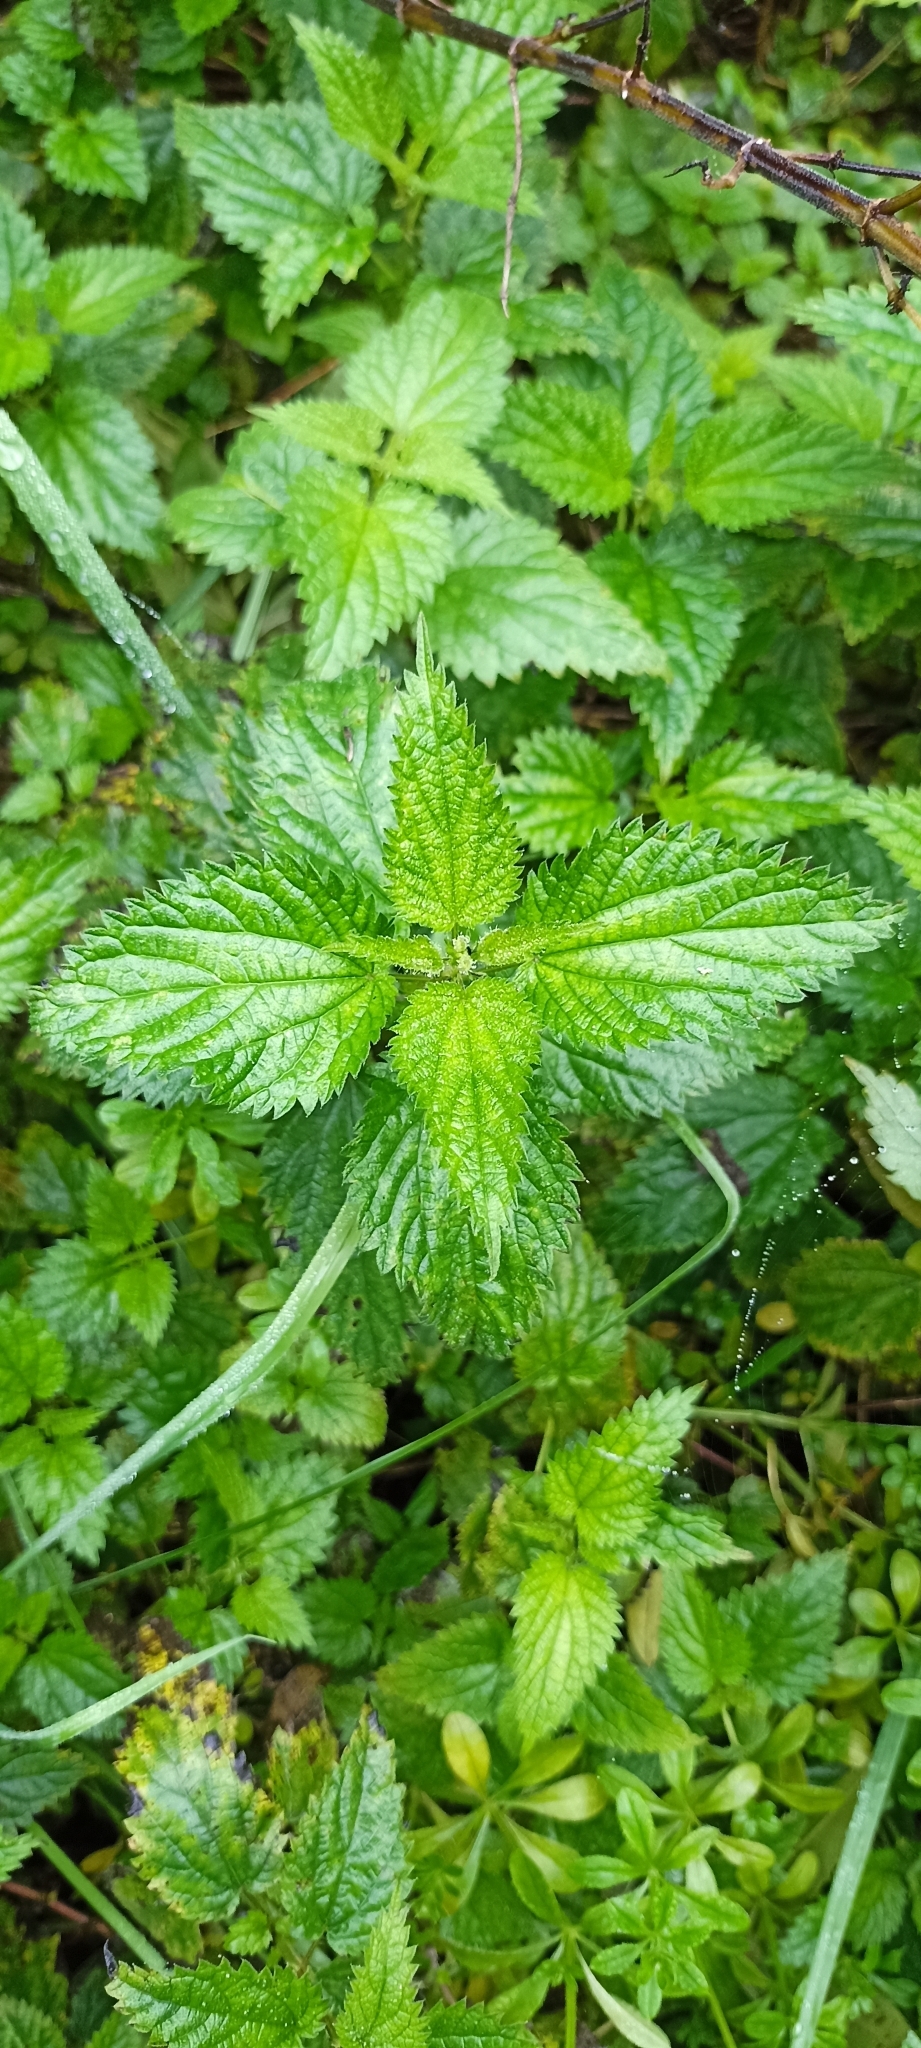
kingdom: Plantae
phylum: Tracheophyta
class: Magnoliopsida
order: Rosales
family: Urticaceae
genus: Urtica
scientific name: Urtica dioica
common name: Common nettle
